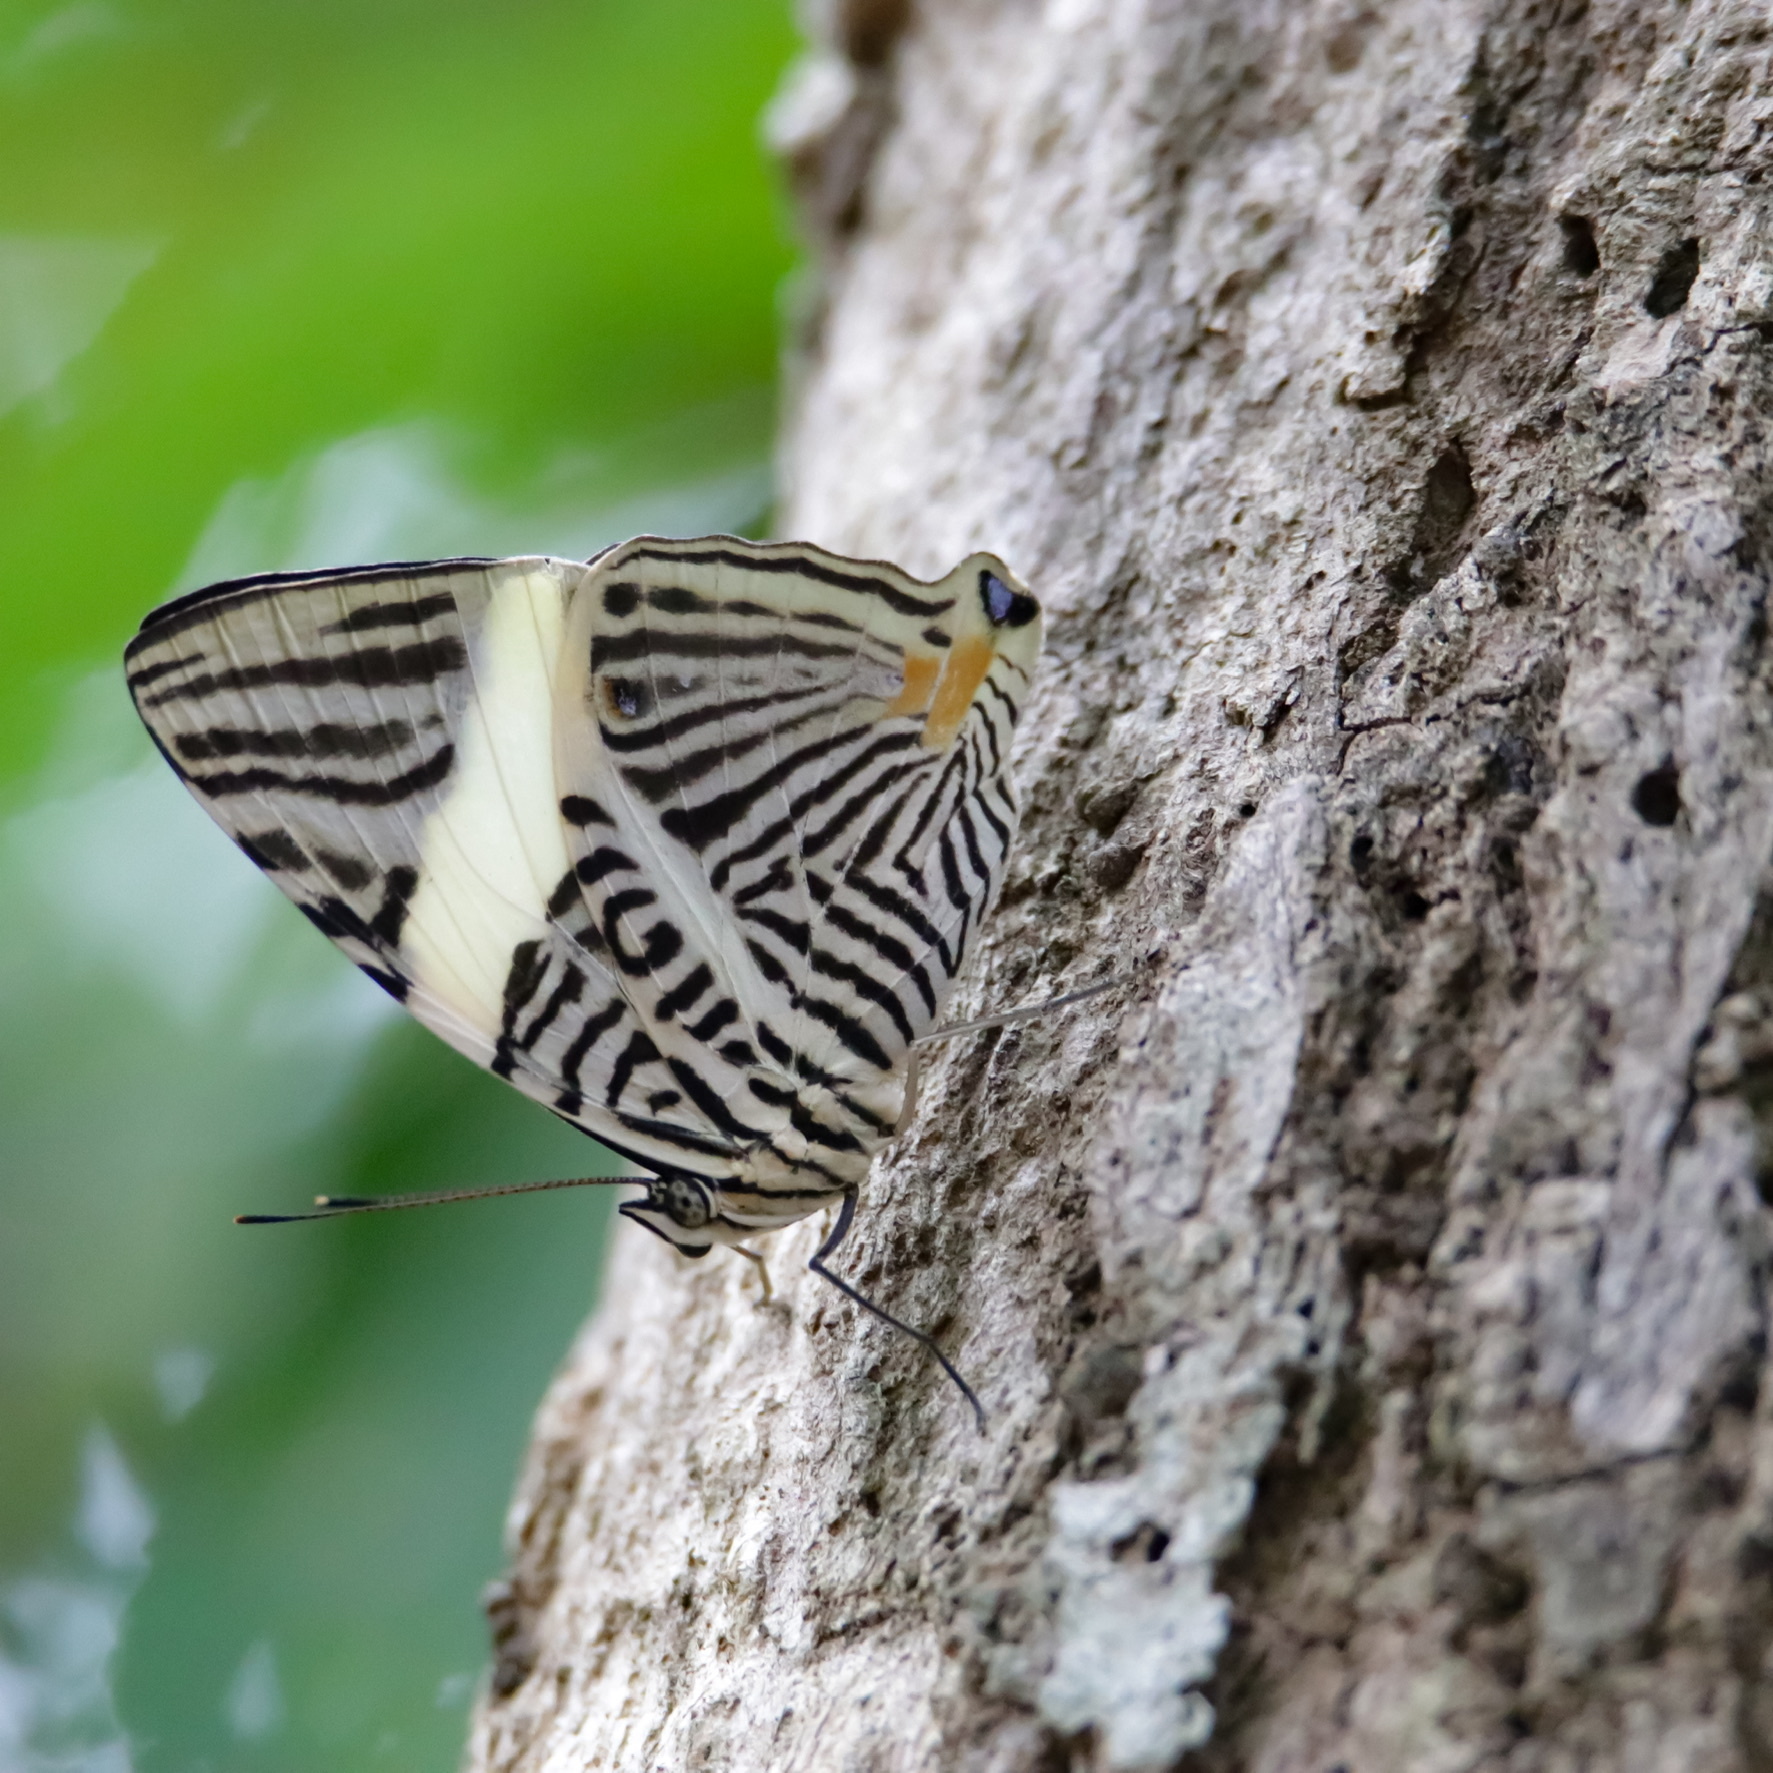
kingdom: Animalia
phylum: Arthropoda
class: Insecta
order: Lepidoptera
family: Nymphalidae
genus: Colobura
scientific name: Colobura dirce
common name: Dirce beauty
